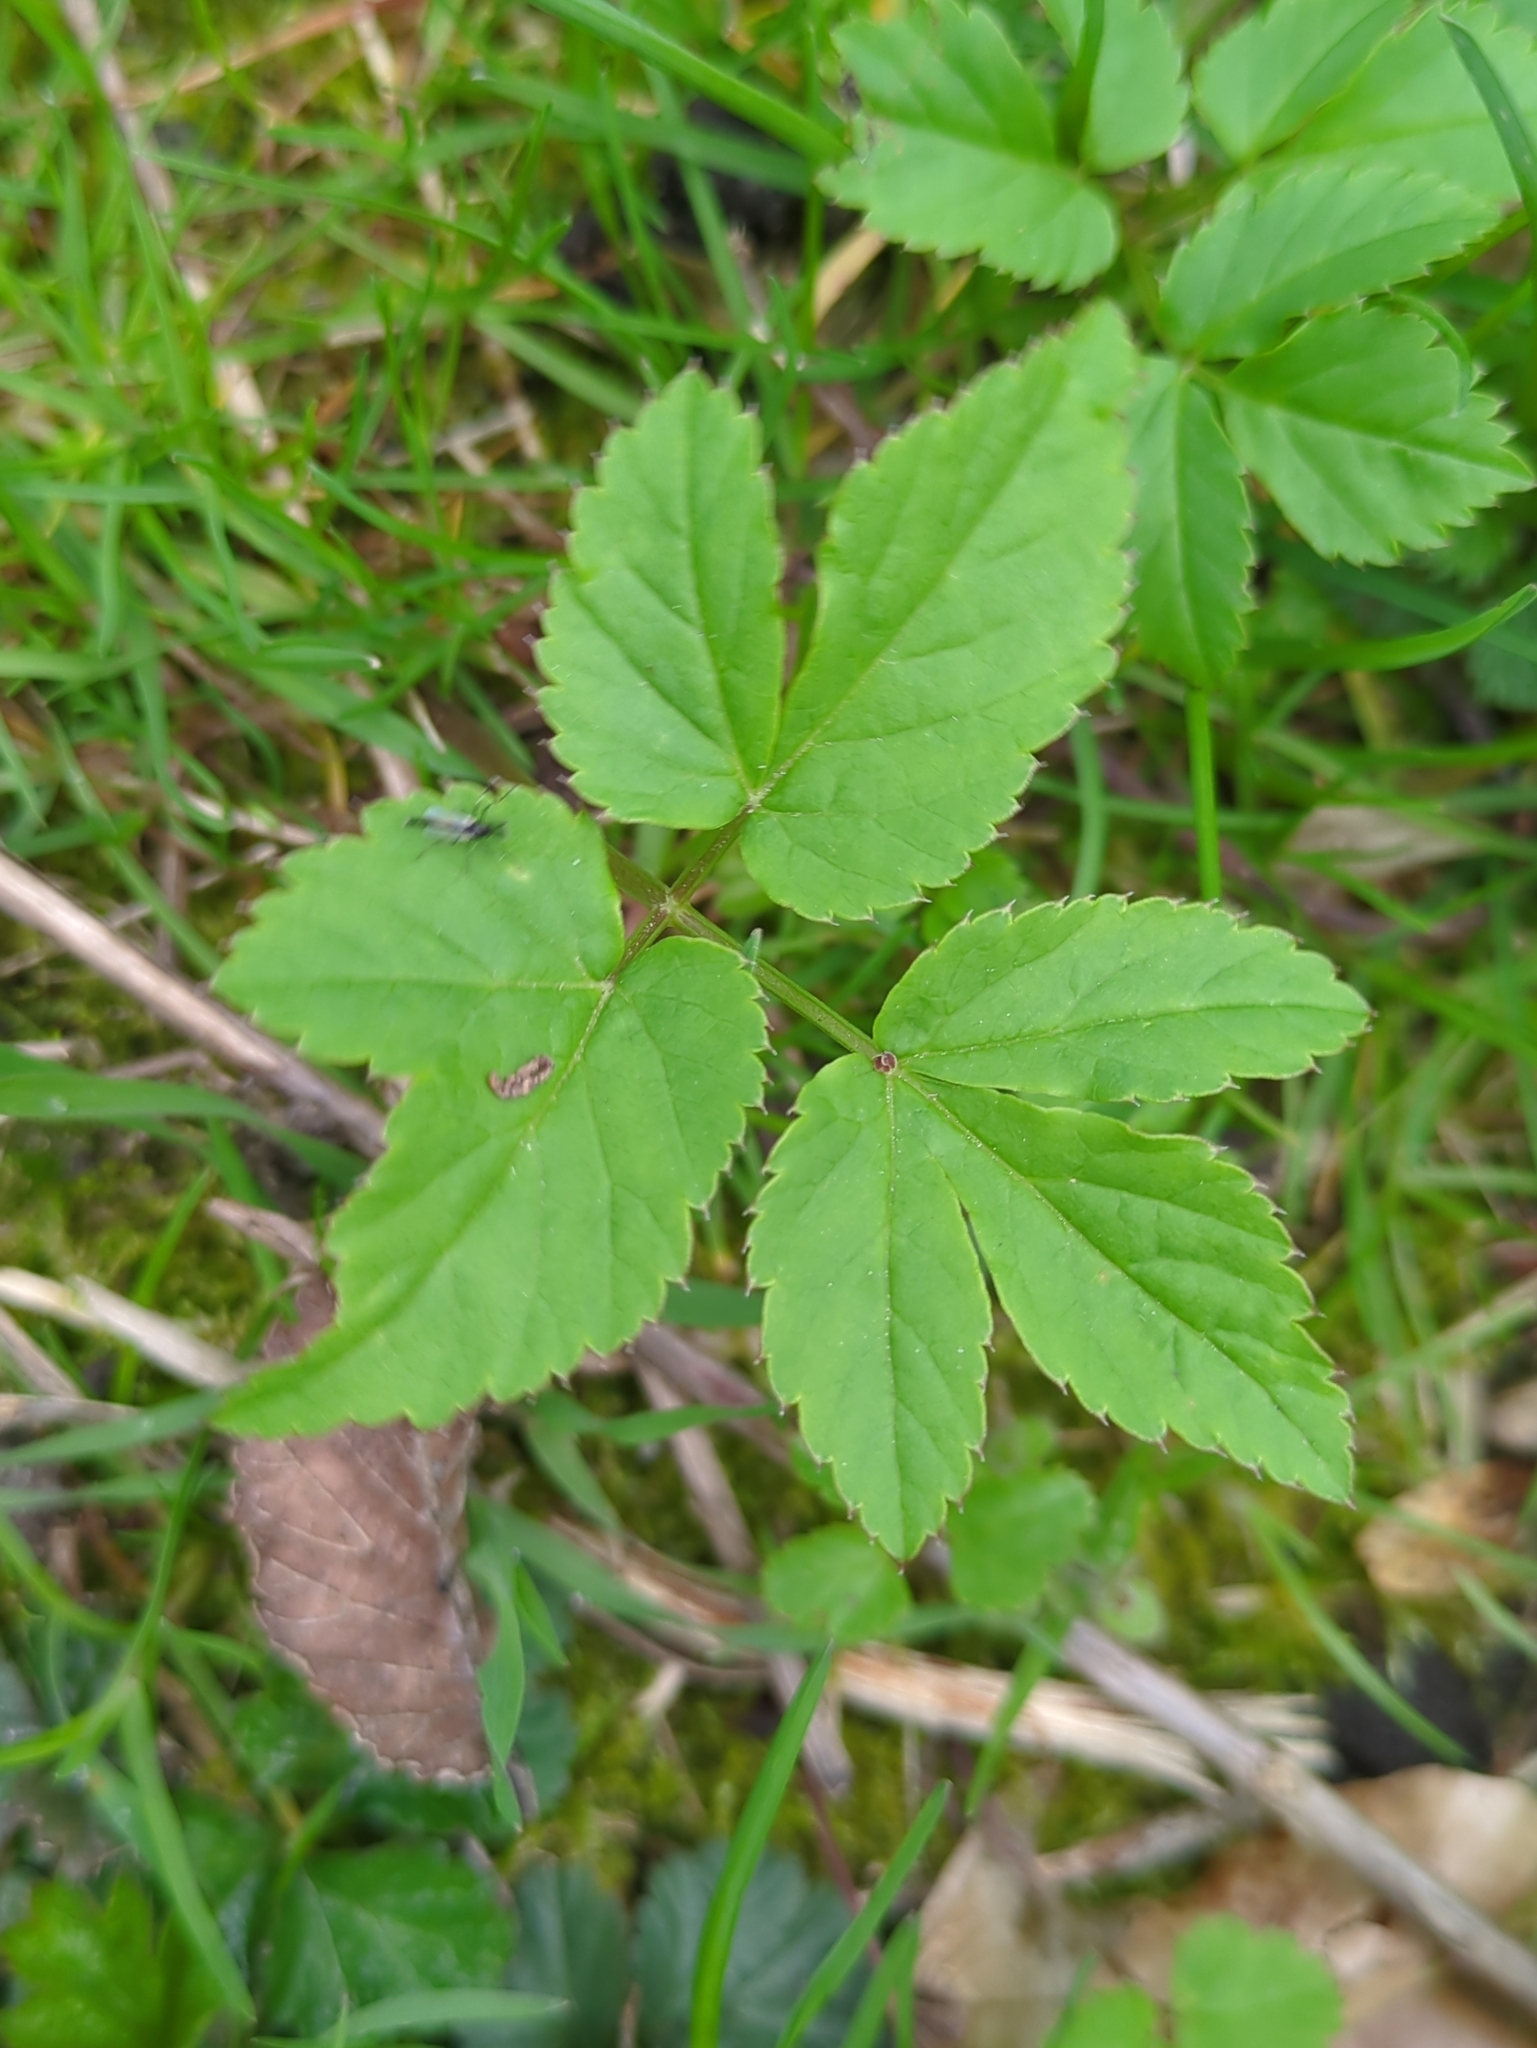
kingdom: Plantae
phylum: Tracheophyta
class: Magnoliopsida
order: Apiales
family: Apiaceae
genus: Aegopodium
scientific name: Aegopodium podagraria
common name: Ground-elder
